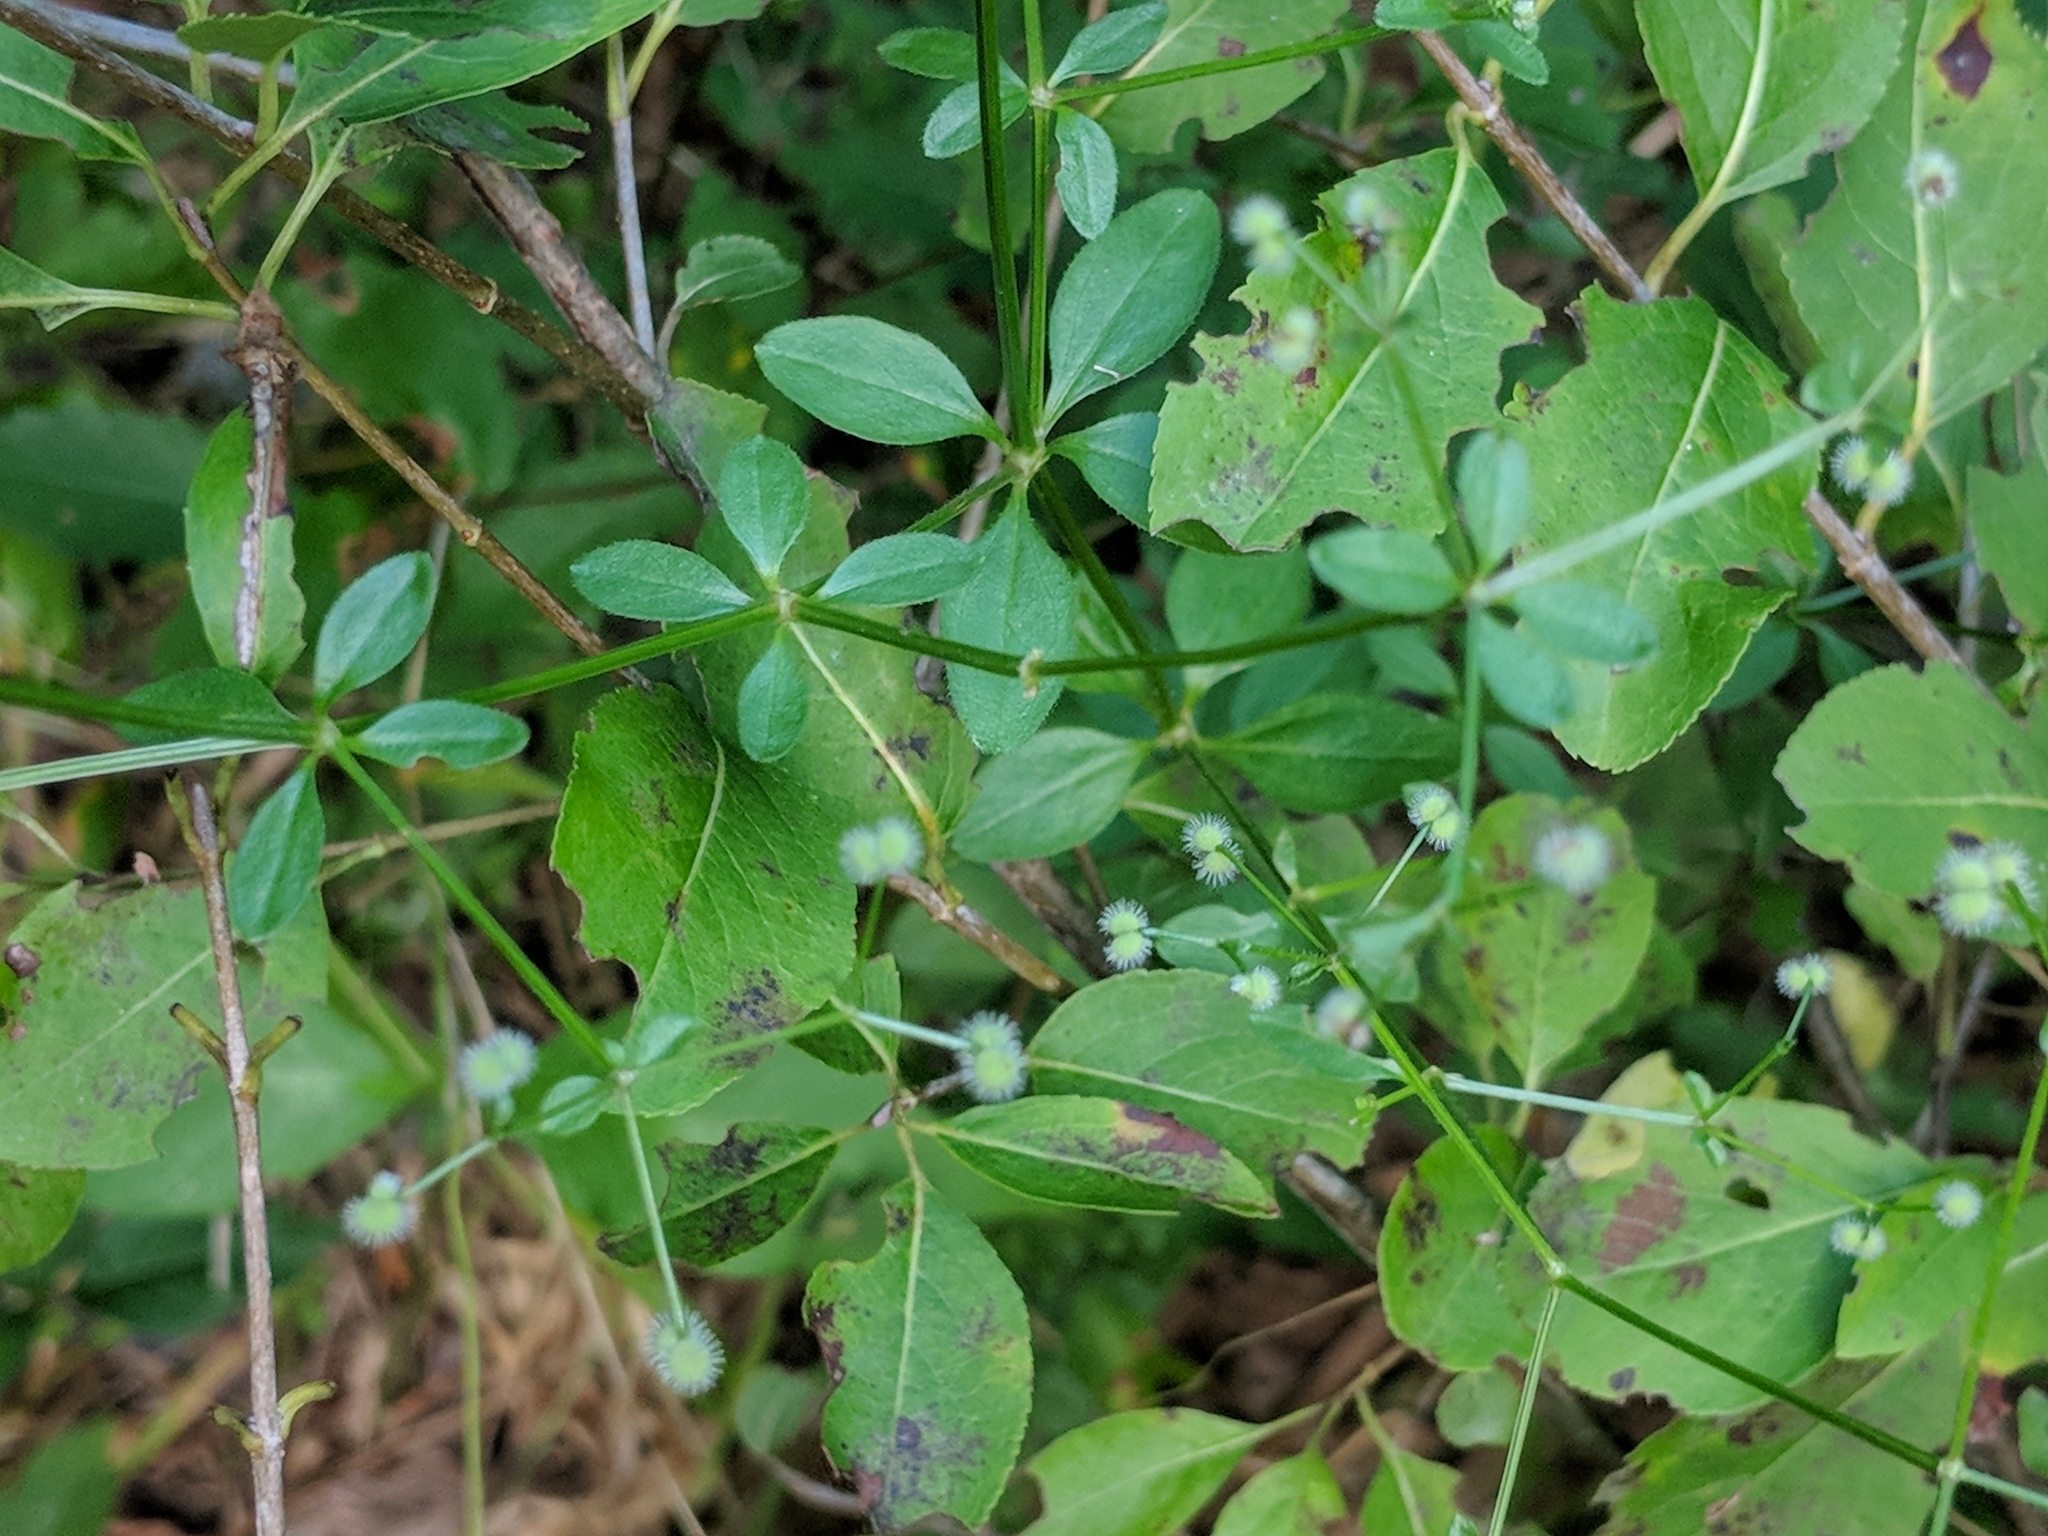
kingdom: Plantae
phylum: Tracheophyta
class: Magnoliopsida
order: Gentianales
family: Rubiaceae
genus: Galium
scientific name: Galium pilosum
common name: Hairy bedstraw
